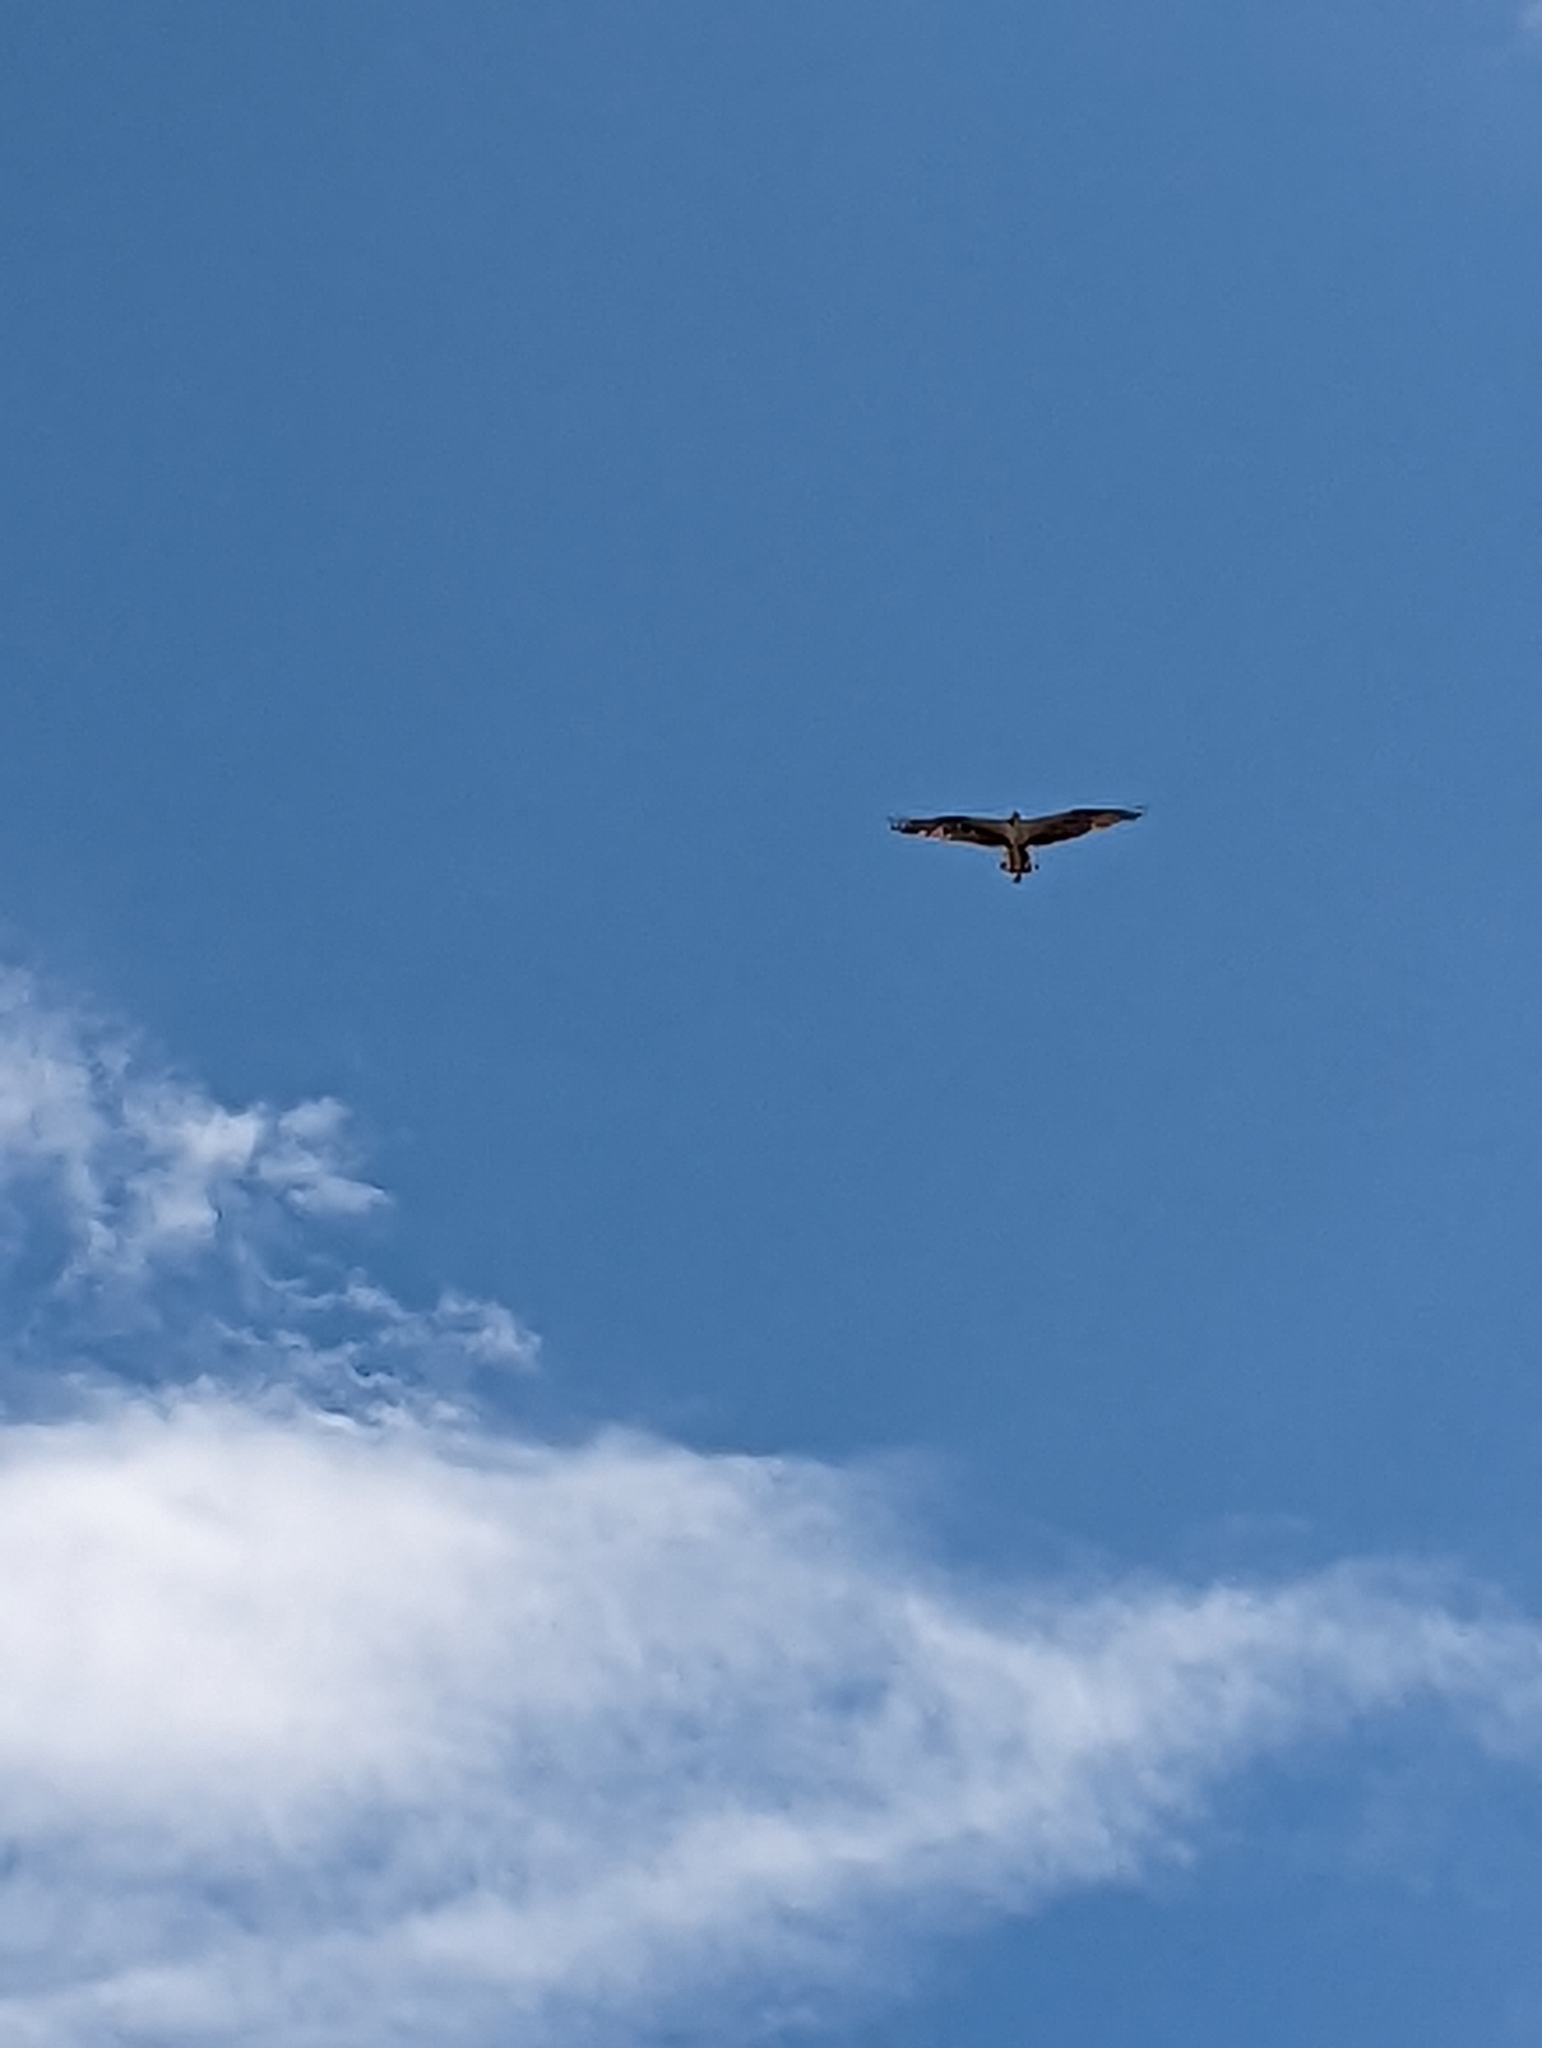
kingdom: Animalia
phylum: Chordata
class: Aves
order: Accipitriformes
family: Pandionidae
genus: Pandion
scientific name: Pandion haliaetus
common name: Osprey
